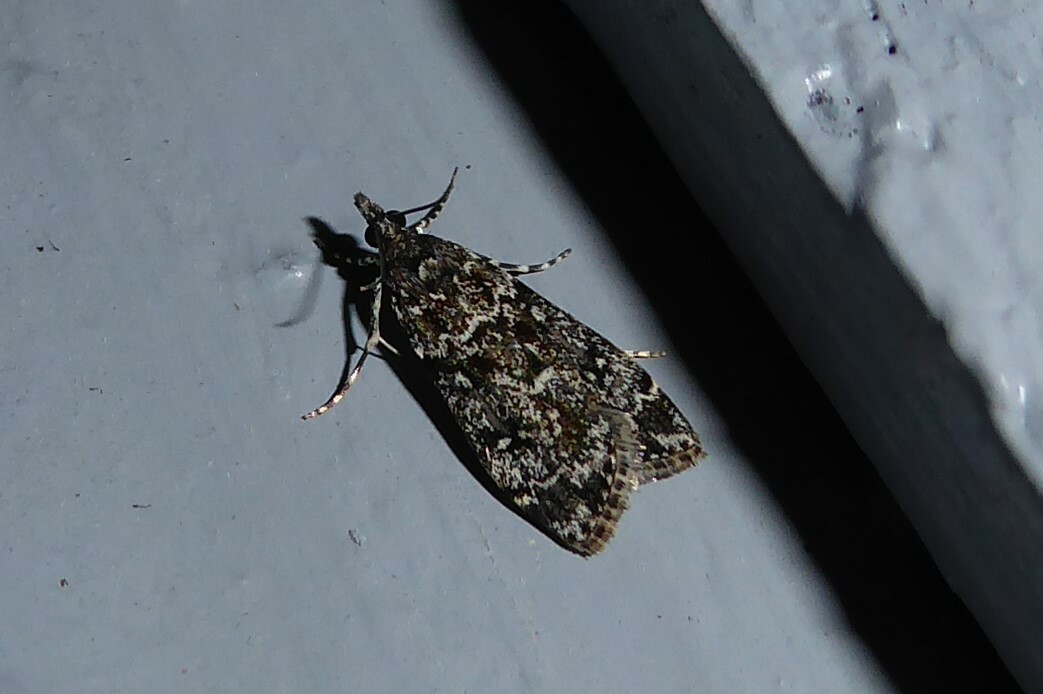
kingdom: Animalia
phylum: Arthropoda
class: Insecta
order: Lepidoptera
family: Crambidae
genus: Eudonia
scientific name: Eudonia philerga
